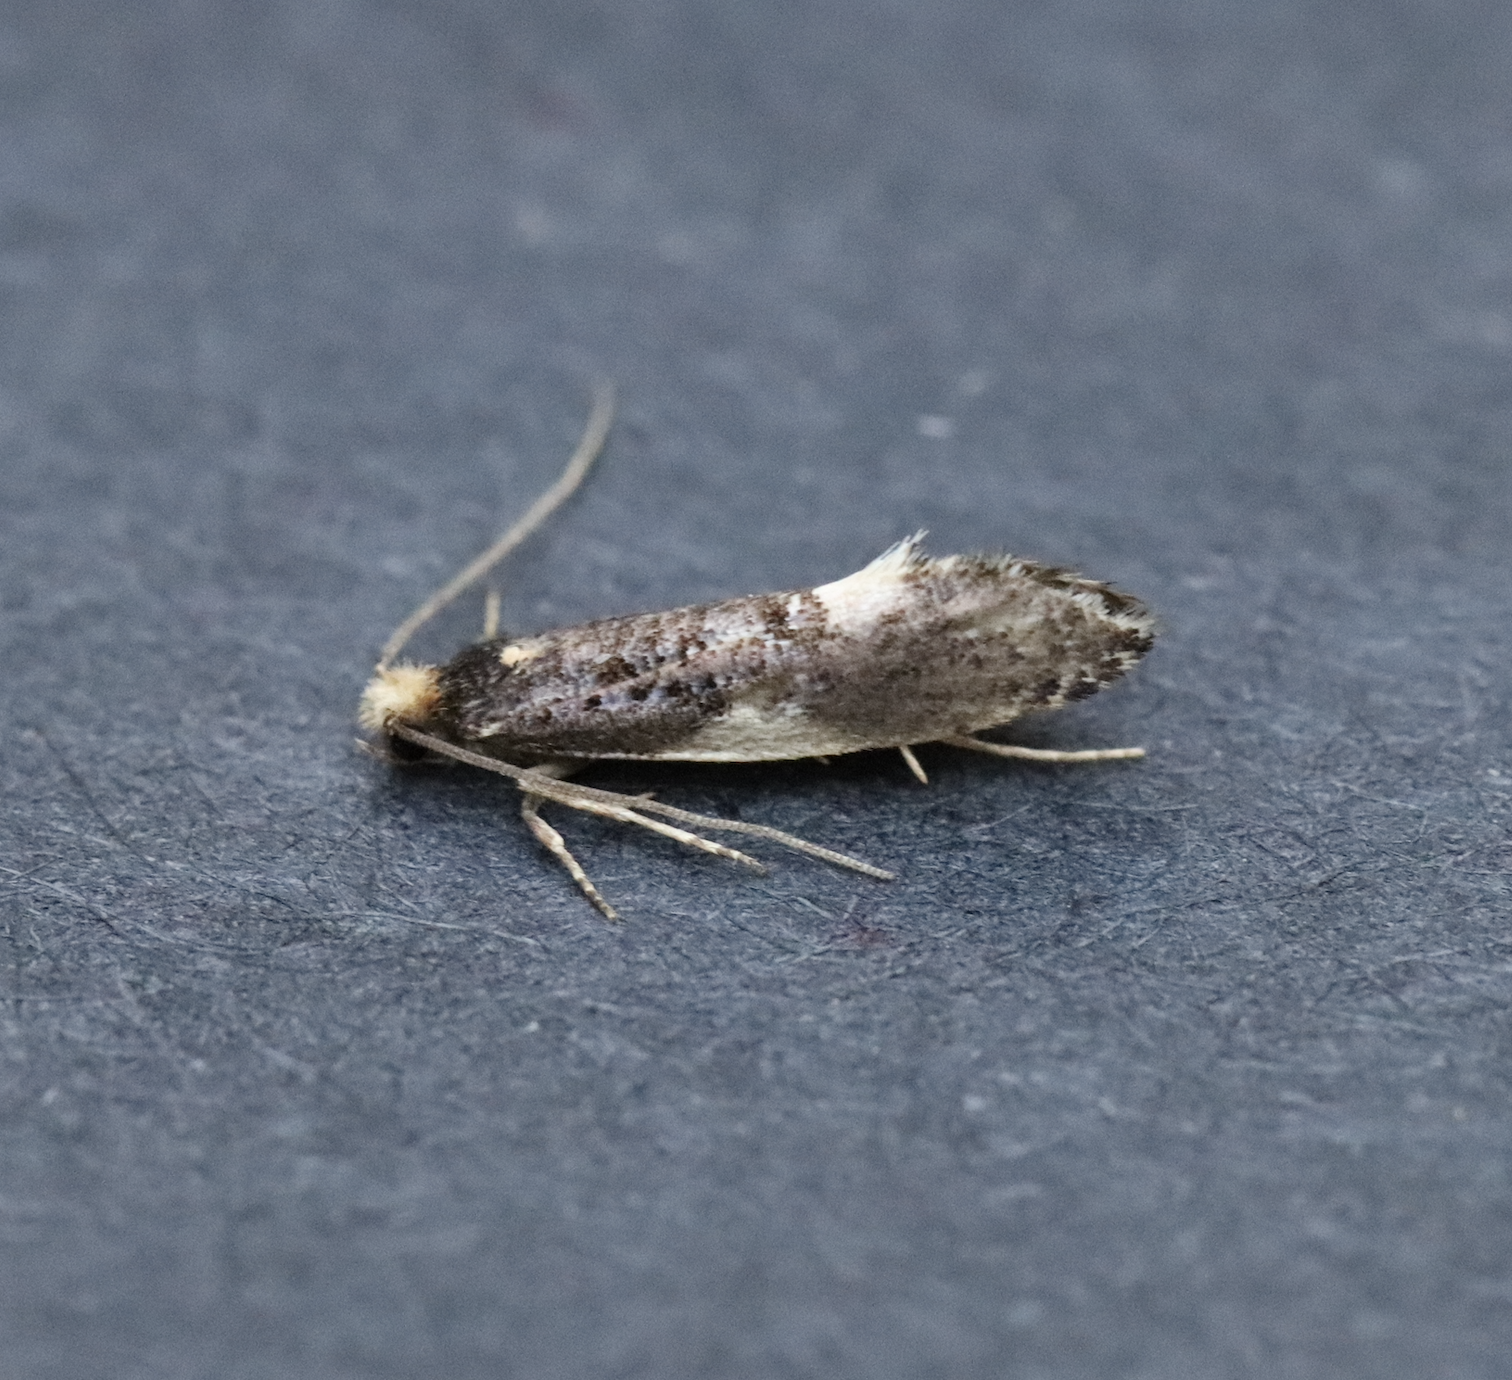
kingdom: Animalia
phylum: Arthropoda
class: Insecta
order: Lepidoptera
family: Tineidae
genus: Monopis
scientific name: Monopis spilotella
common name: Orange-headed monopis
